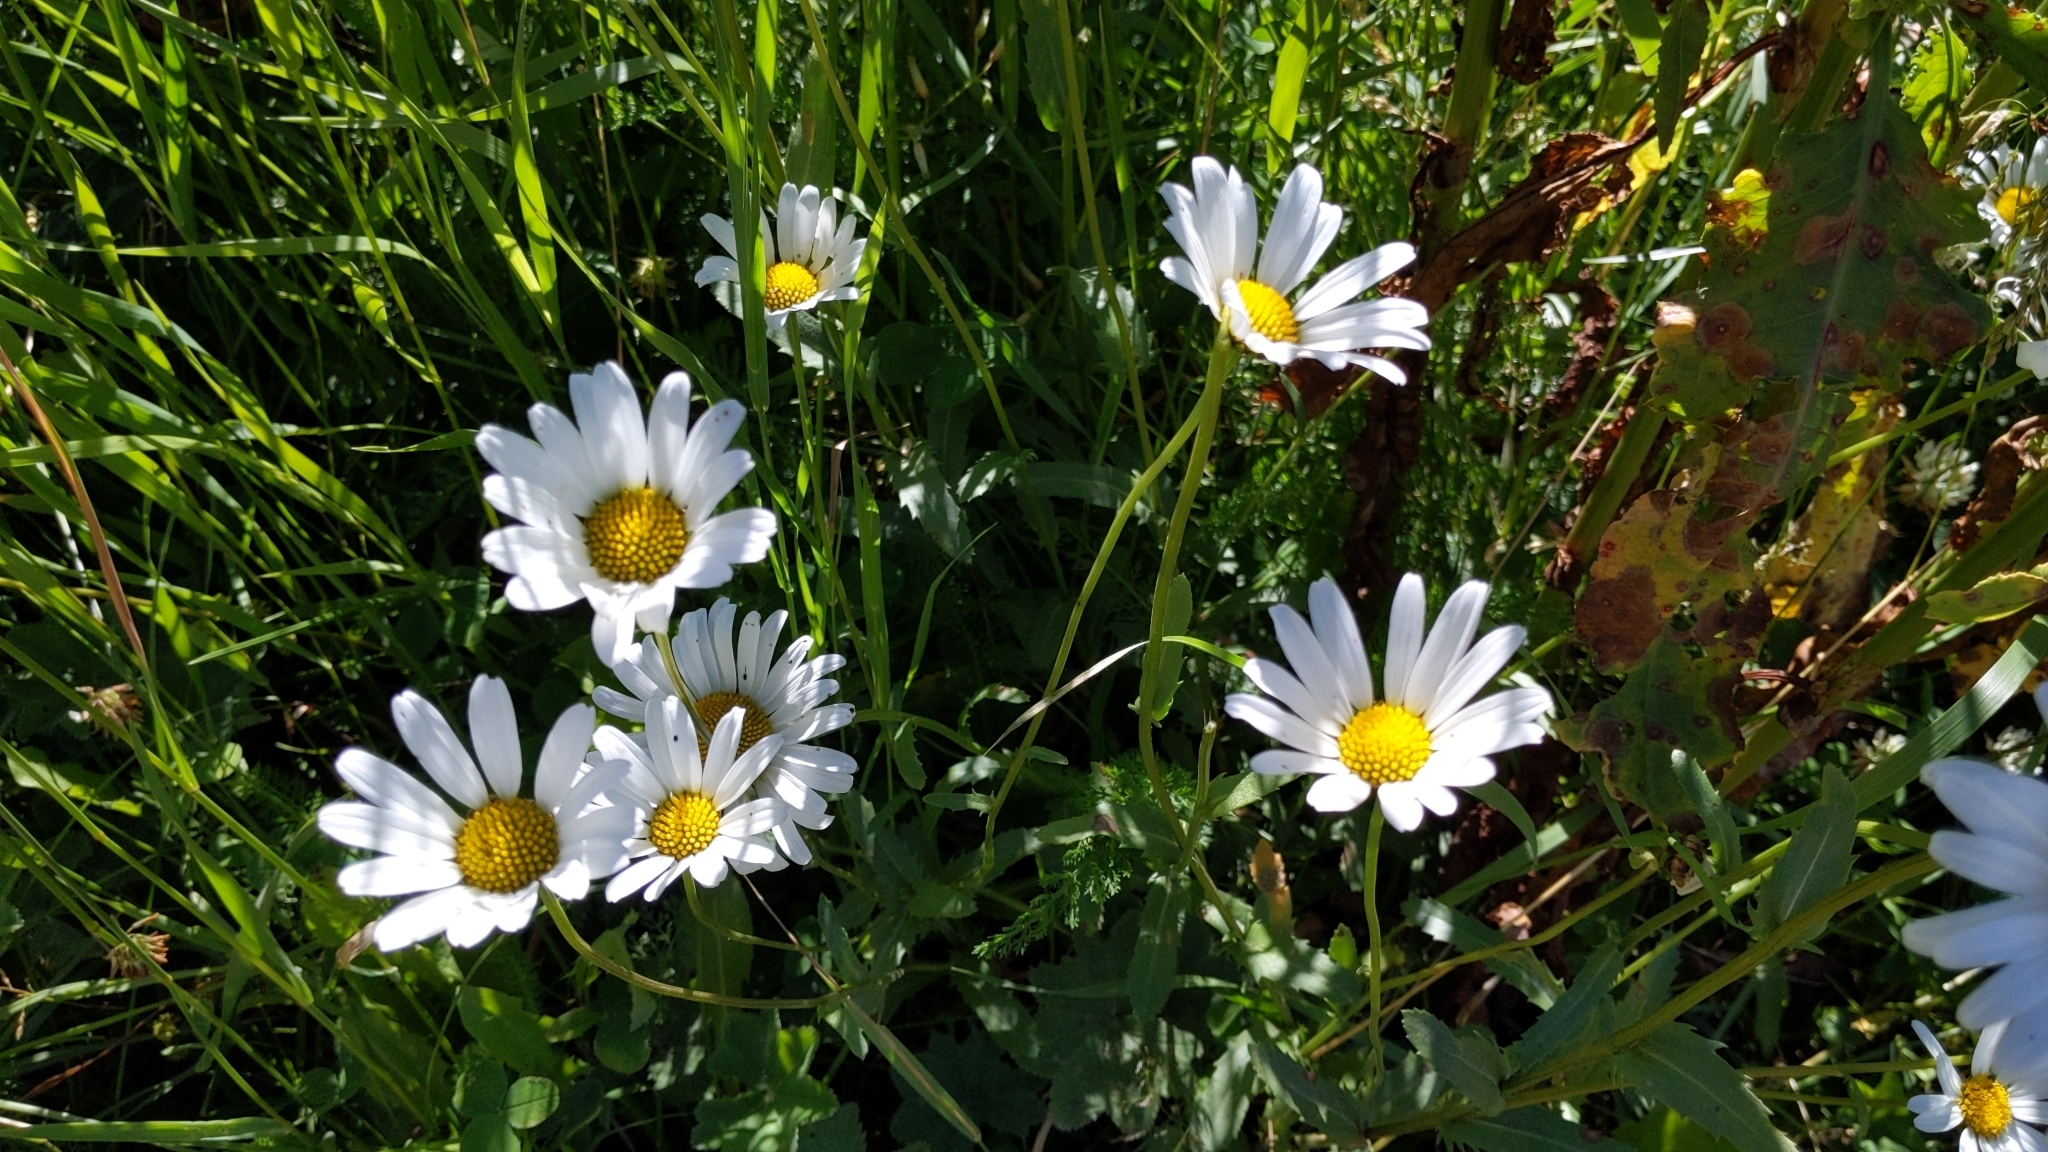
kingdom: Plantae
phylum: Tracheophyta
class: Magnoliopsida
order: Asterales
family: Asteraceae
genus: Leucanthemum
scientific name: Leucanthemum vulgare
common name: Oxeye daisy
